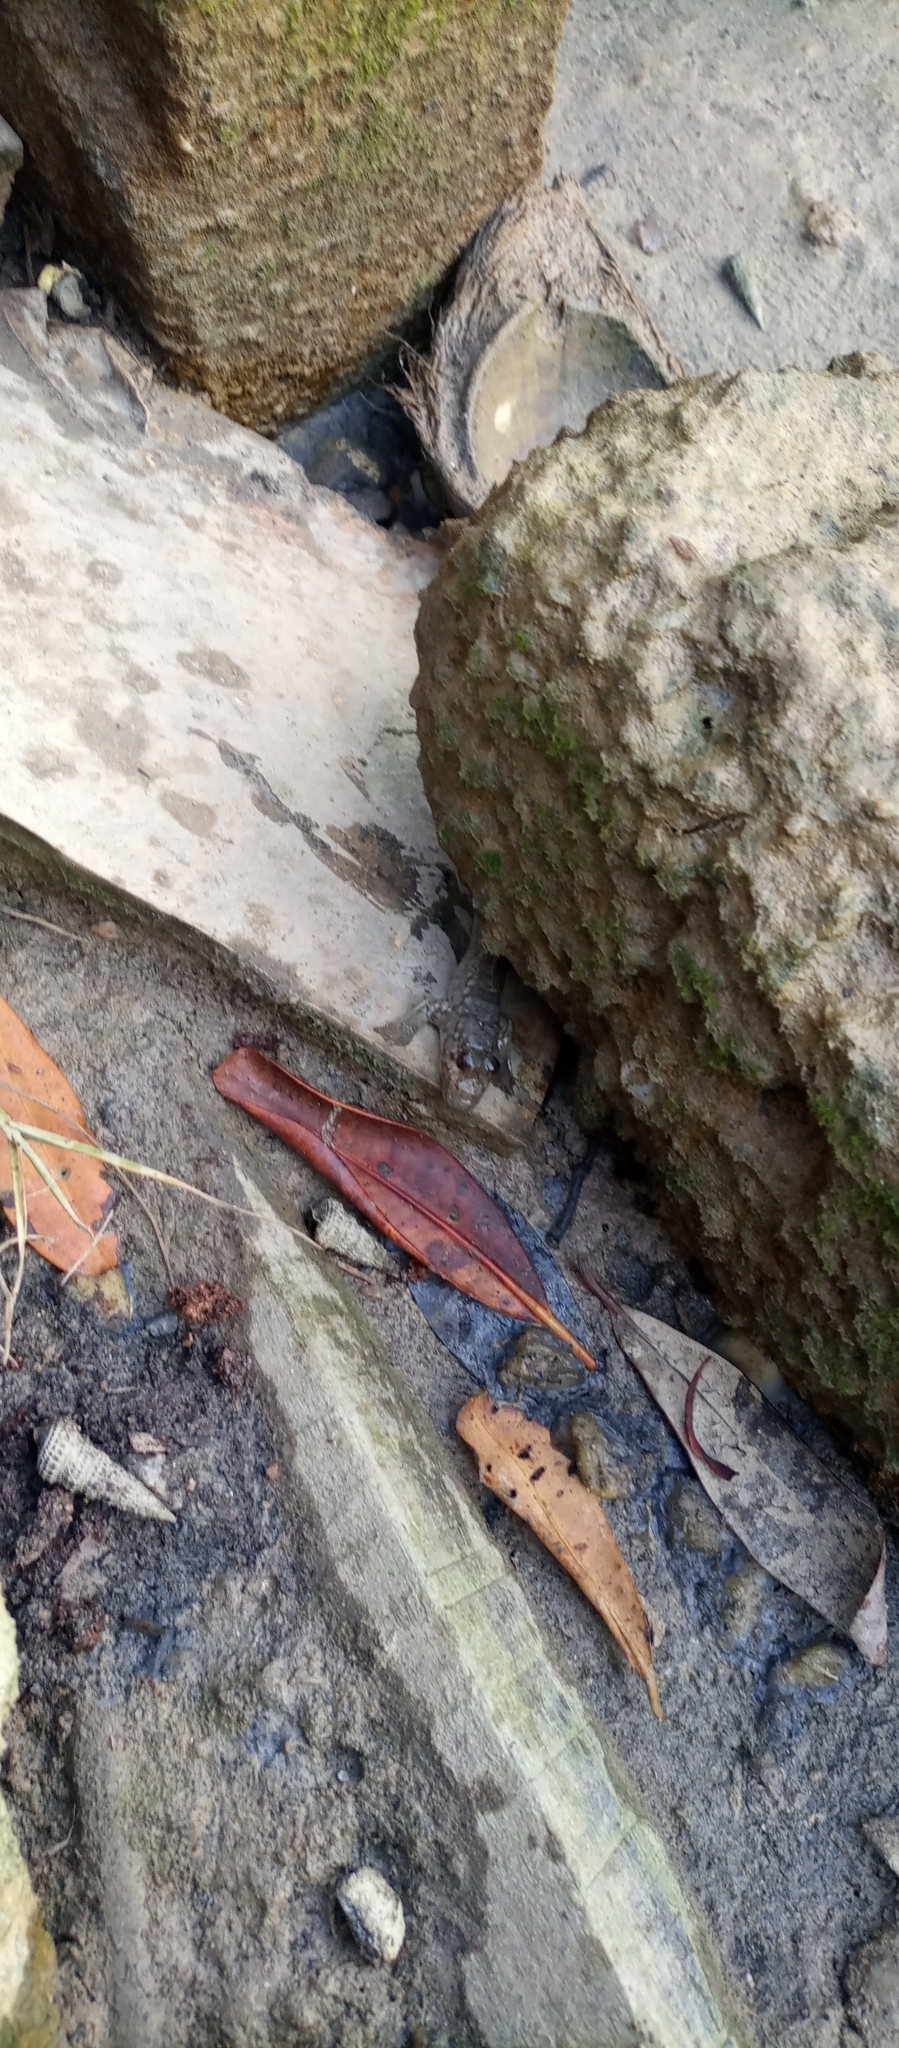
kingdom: Animalia
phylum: Chordata
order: Perciformes
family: Gobiidae
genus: Periophthalmus
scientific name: Periophthalmus barbarus
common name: Atlantic mudskipper
